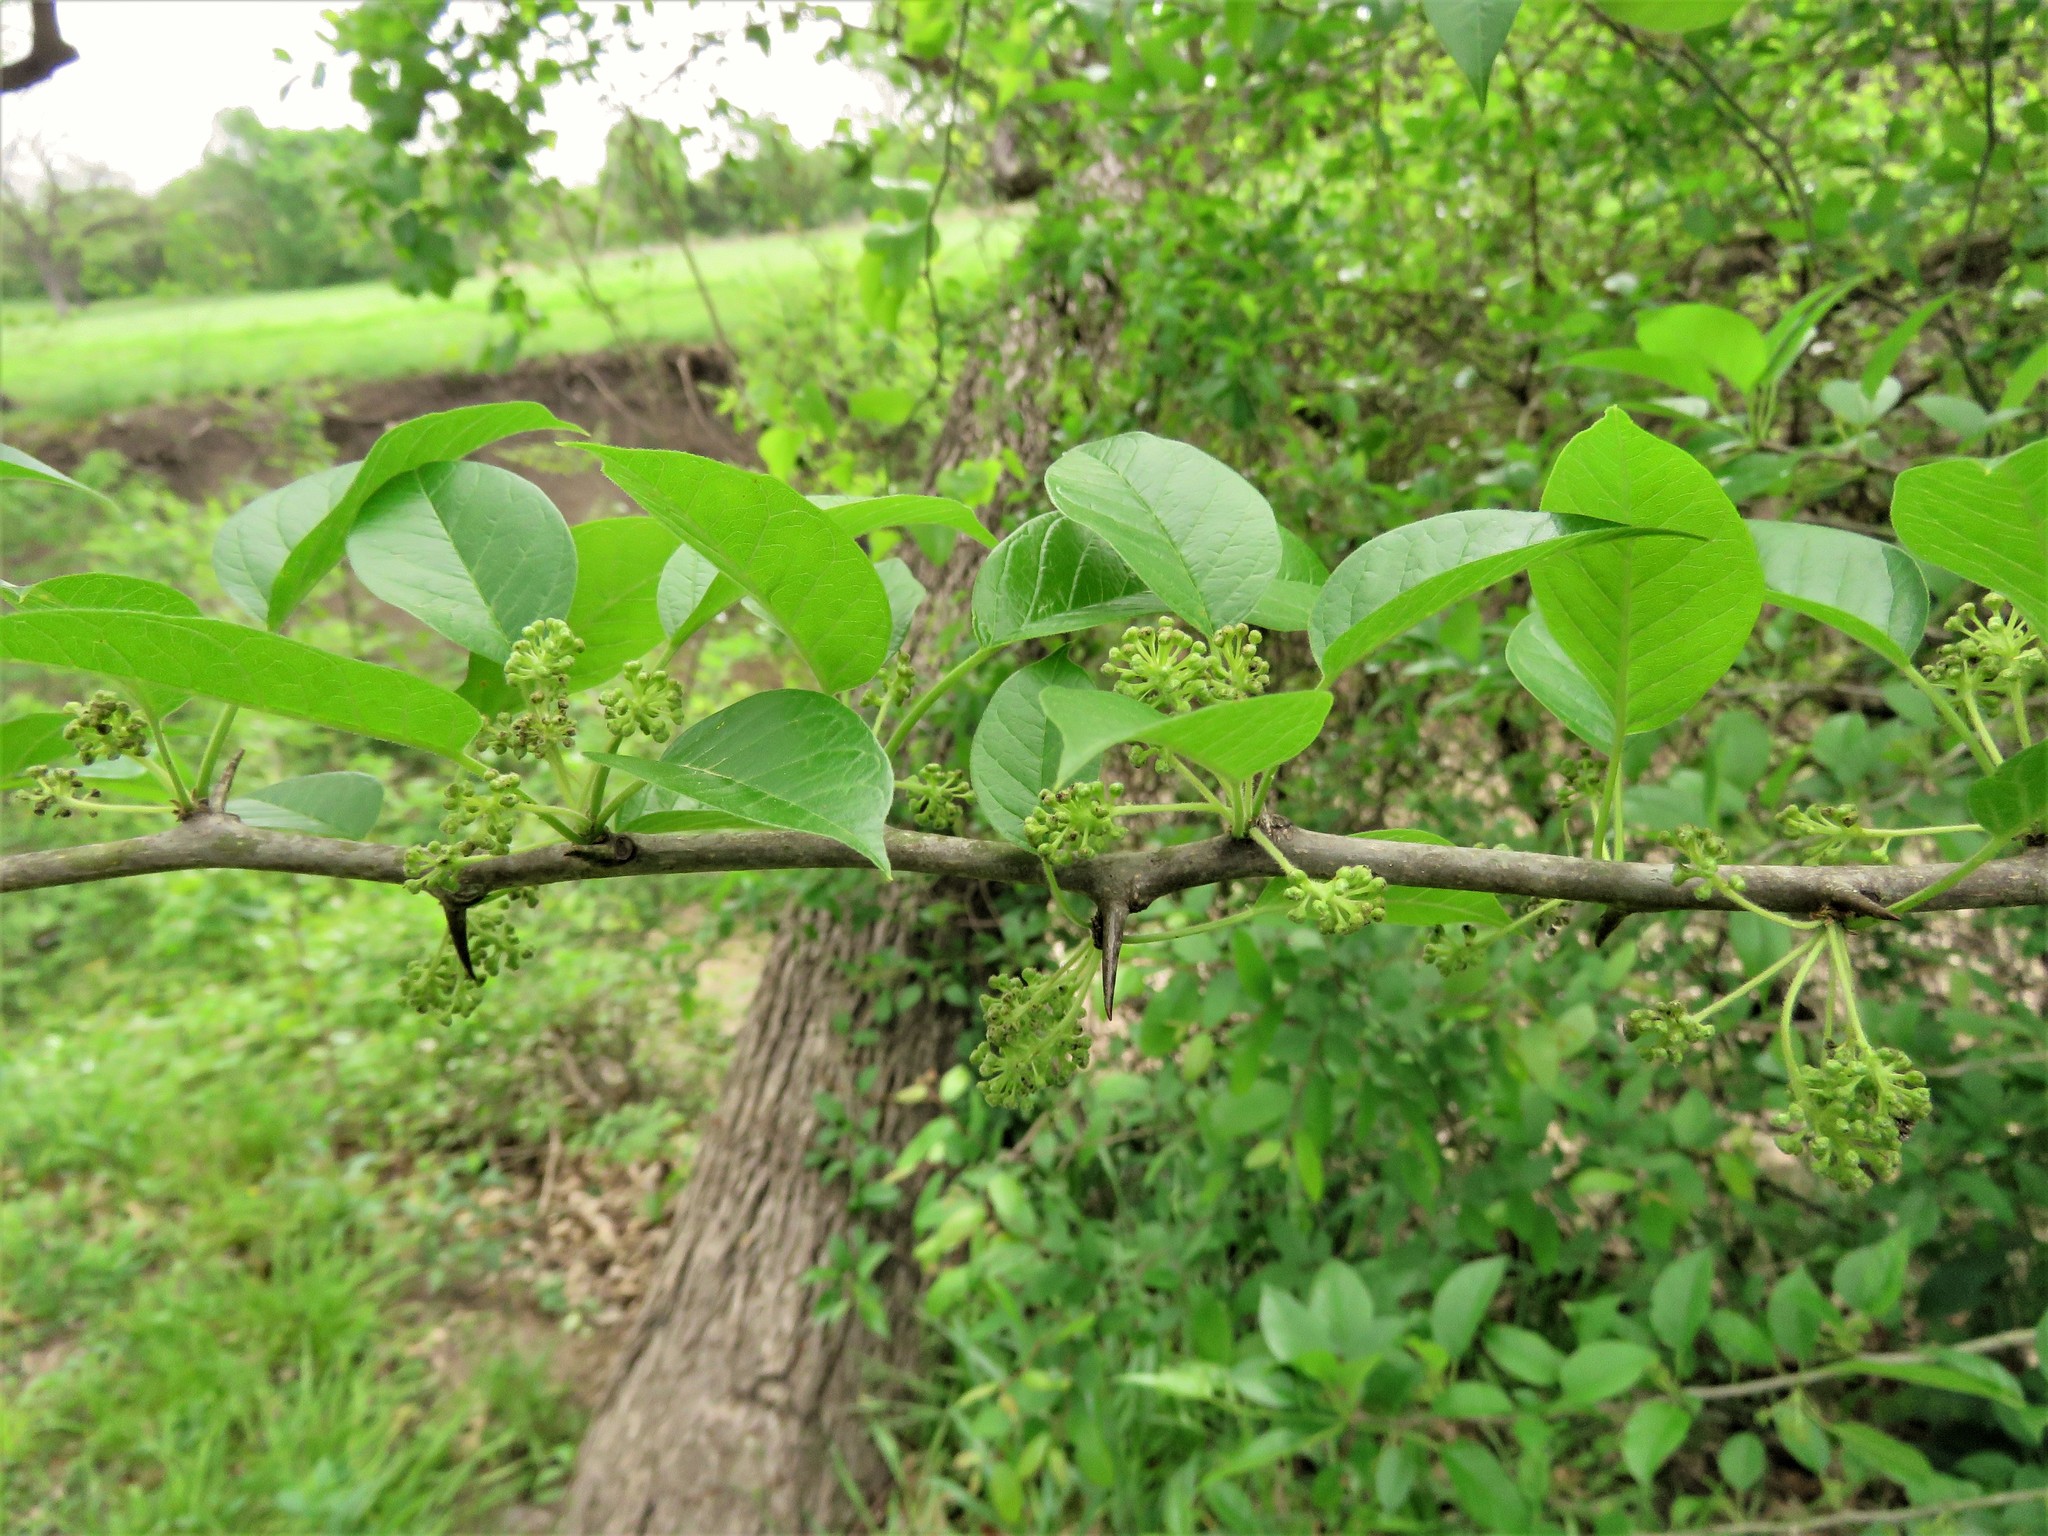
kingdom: Plantae
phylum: Tracheophyta
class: Magnoliopsida
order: Rosales
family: Moraceae
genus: Maclura
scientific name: Maclura pomifera
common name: Osage-orange
